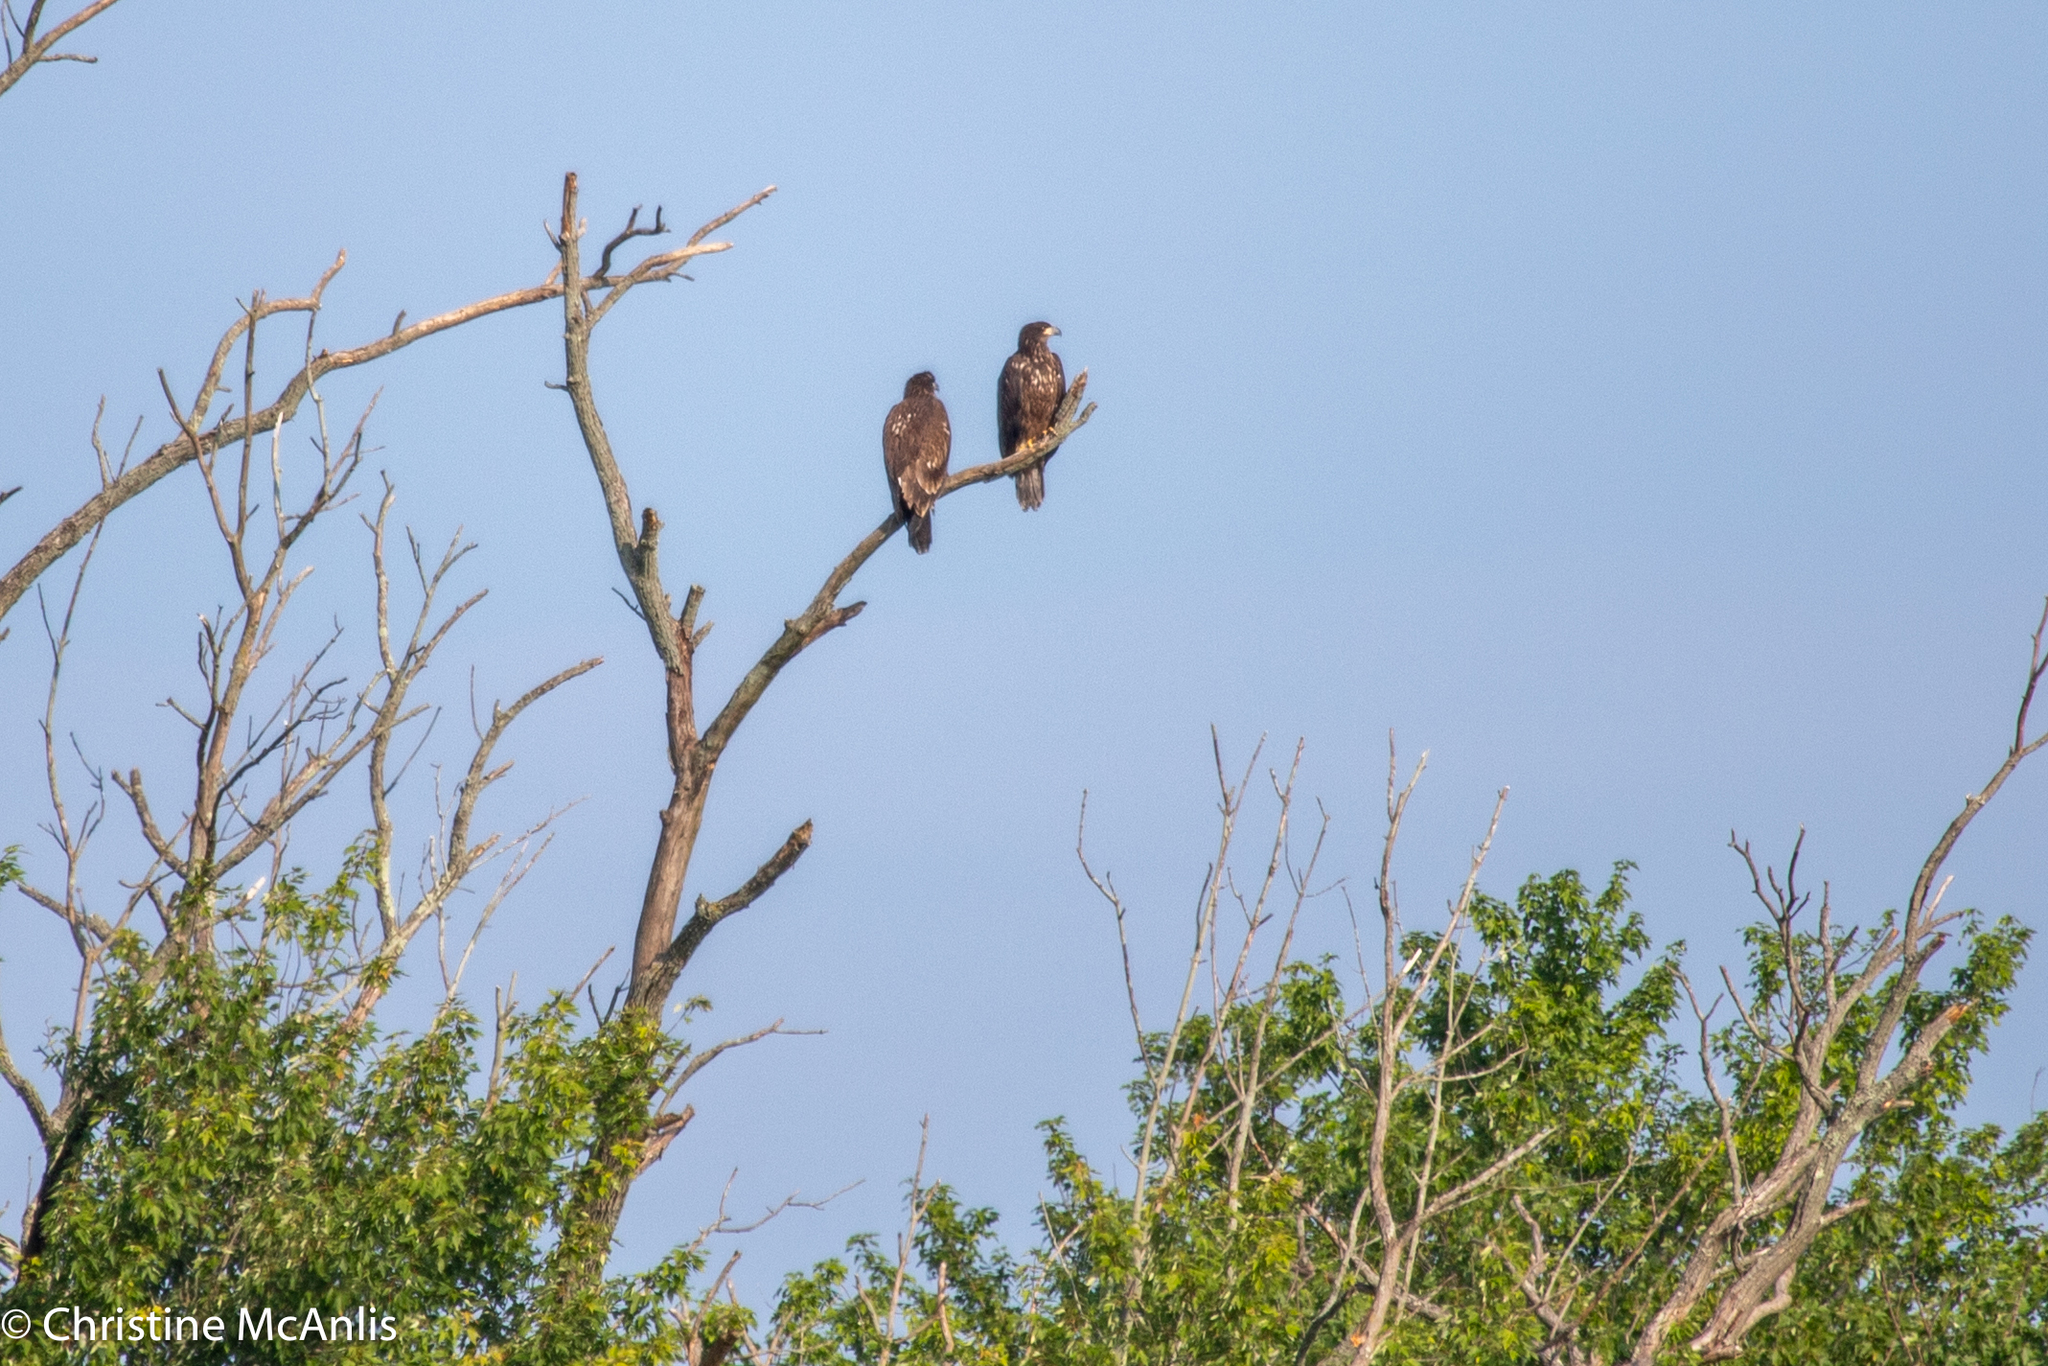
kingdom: Animalia
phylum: Chordata
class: Aves
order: Accipitriformes
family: Accipitridae
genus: Haliaeetus
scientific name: Haliaeetus leucocephalus
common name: Bald eagle
